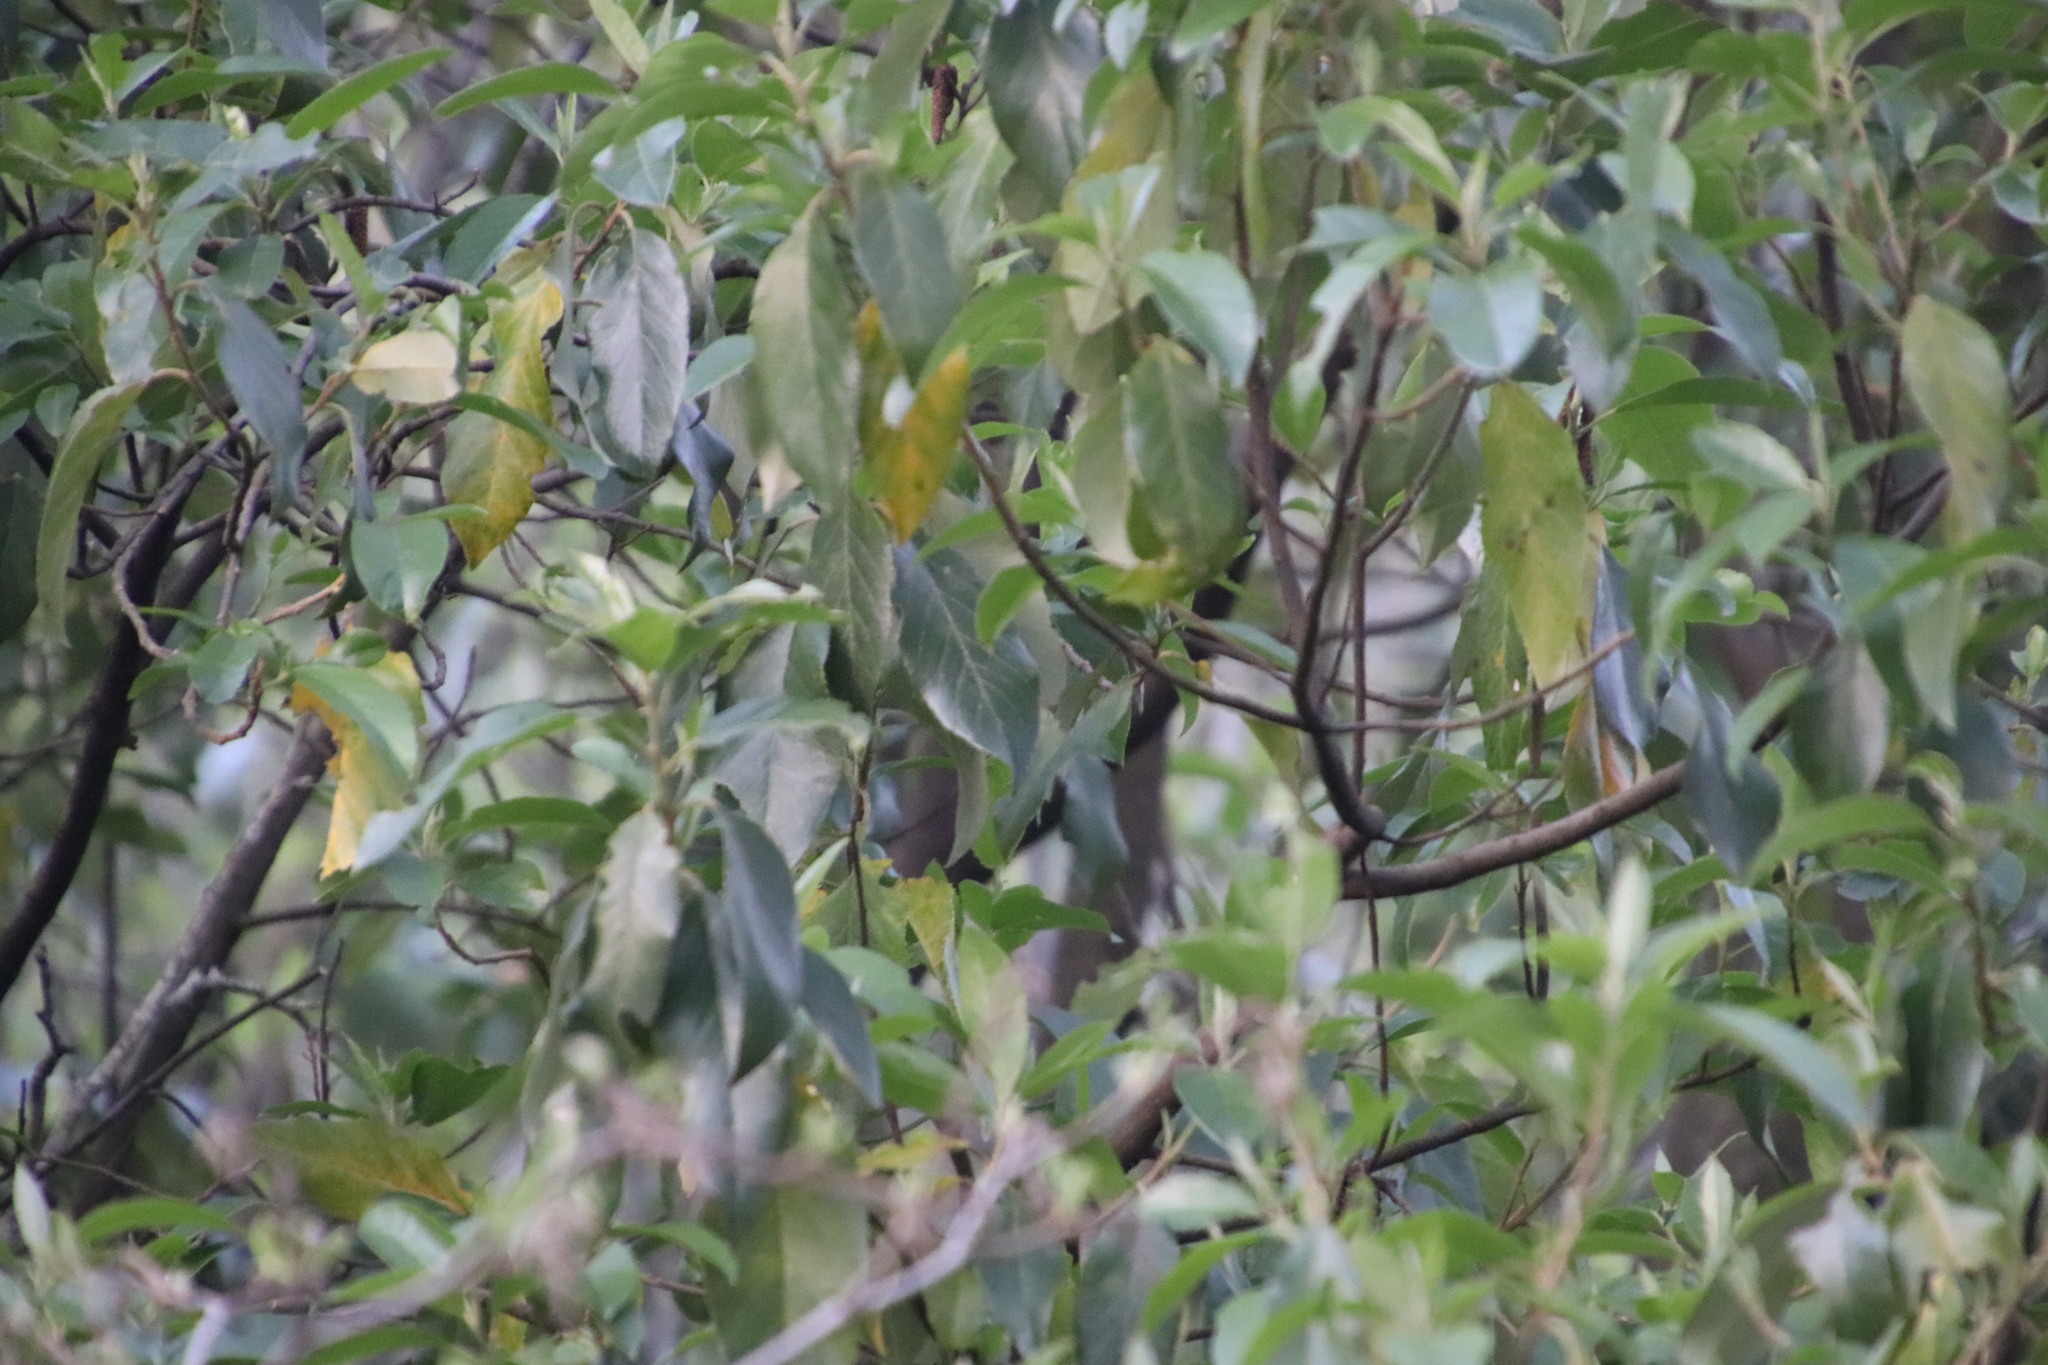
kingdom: Plantae
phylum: Tracheophyta
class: Magnoliopsida
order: Malpighiales
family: Achariaceae
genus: Kiggelaria
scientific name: Kiggelaria africana
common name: Wild peach
